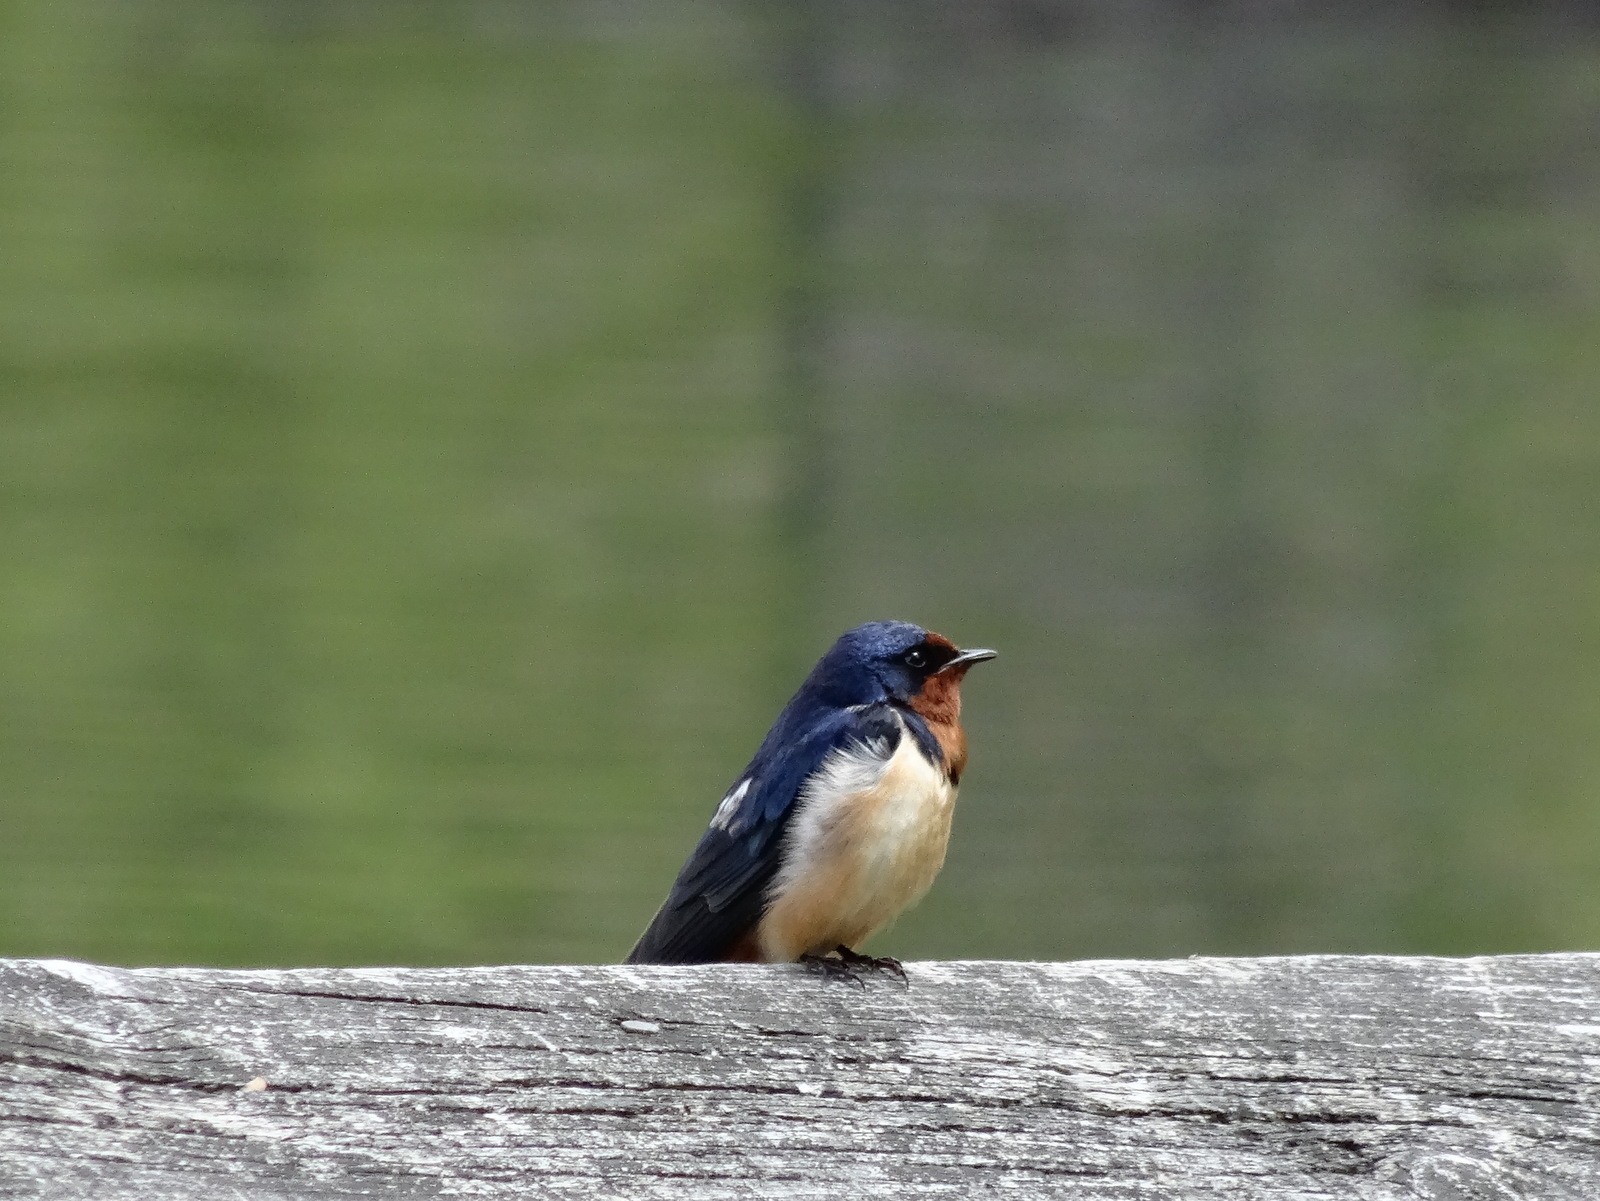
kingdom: Animalia
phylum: Chordata
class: Aves
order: Passeriformes
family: Hirundinidae
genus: Hirundo
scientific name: Hirundo rustica
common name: Barn swallow
